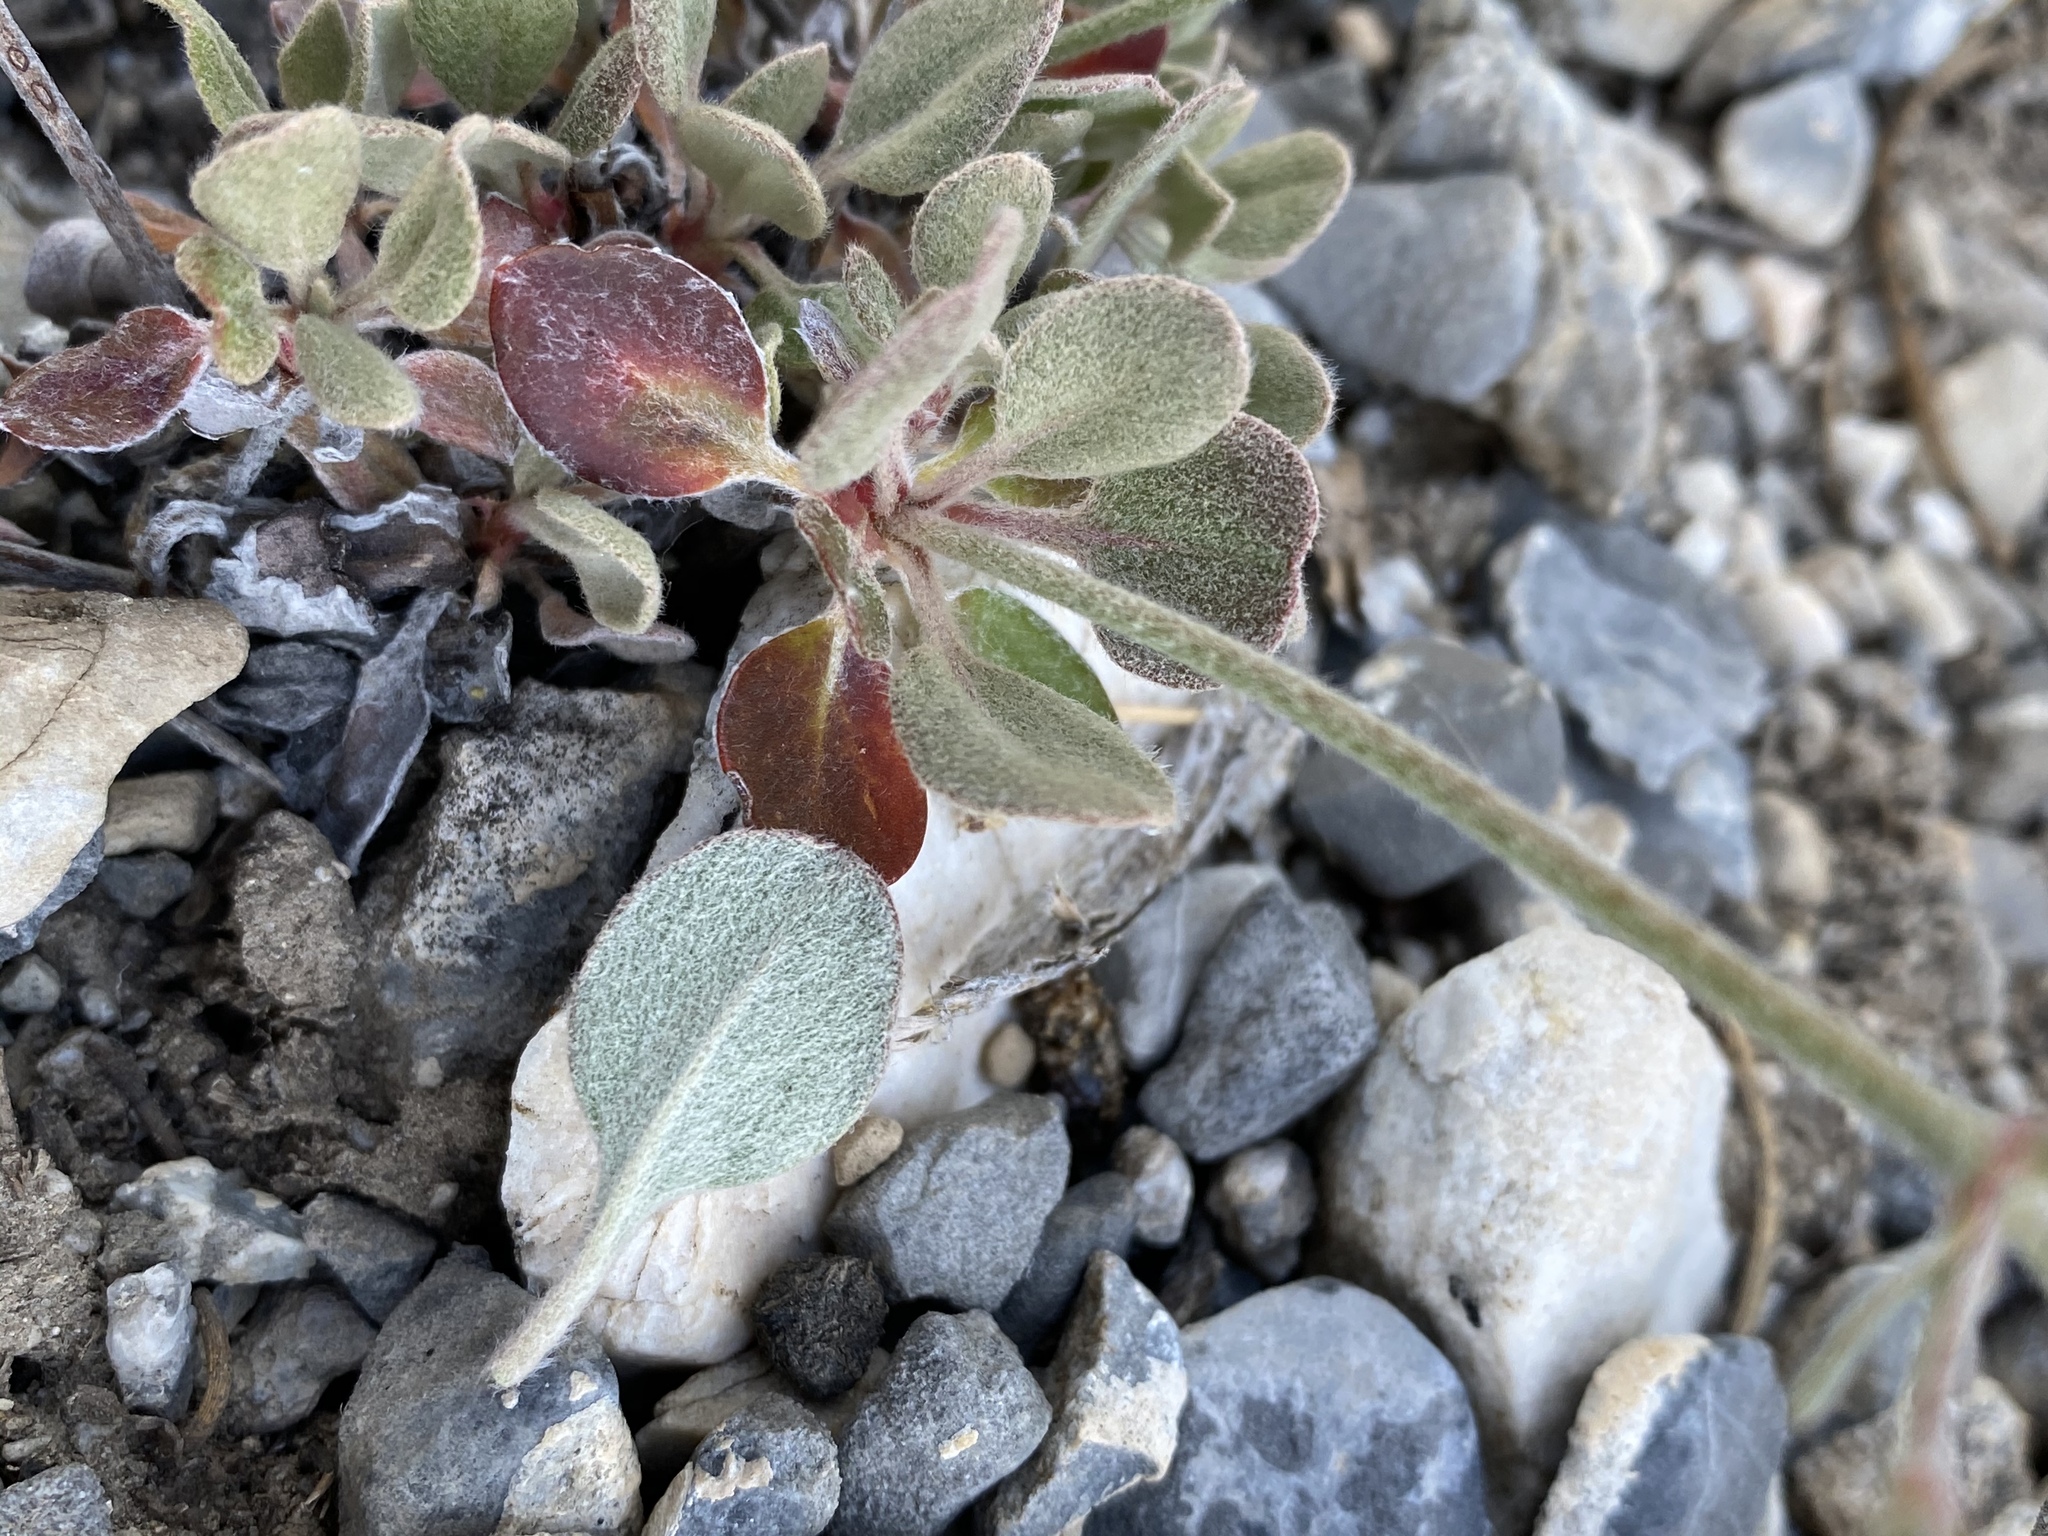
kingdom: Plantae
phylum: Tracheophyta
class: Magnoliopsida
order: Caryophyllales
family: Polygonaceae
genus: Eriogonum
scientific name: Eriogonum umbellatum
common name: Sulfur-buckwheat
